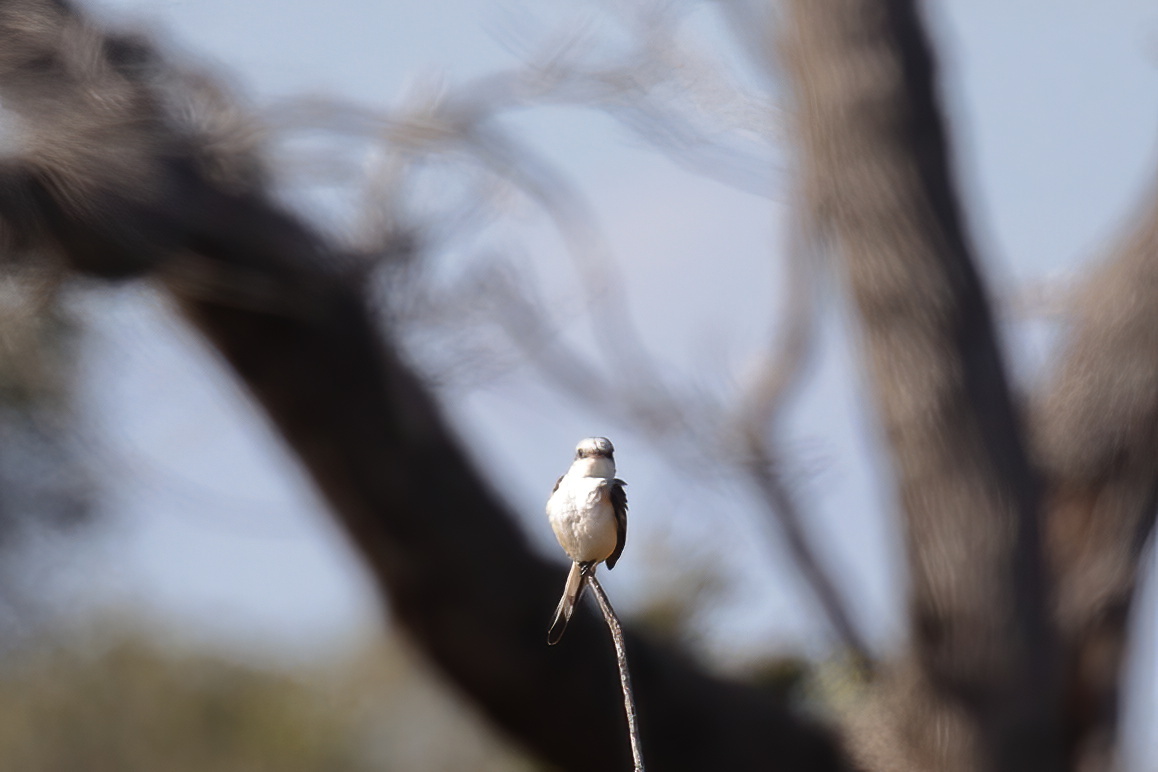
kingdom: Animalia
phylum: Chordata
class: Aves
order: Passeriformes
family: Tyrannidae
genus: Tyrannus
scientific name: Tyrannus forficatus
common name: Scissor-tailed flycatcher
